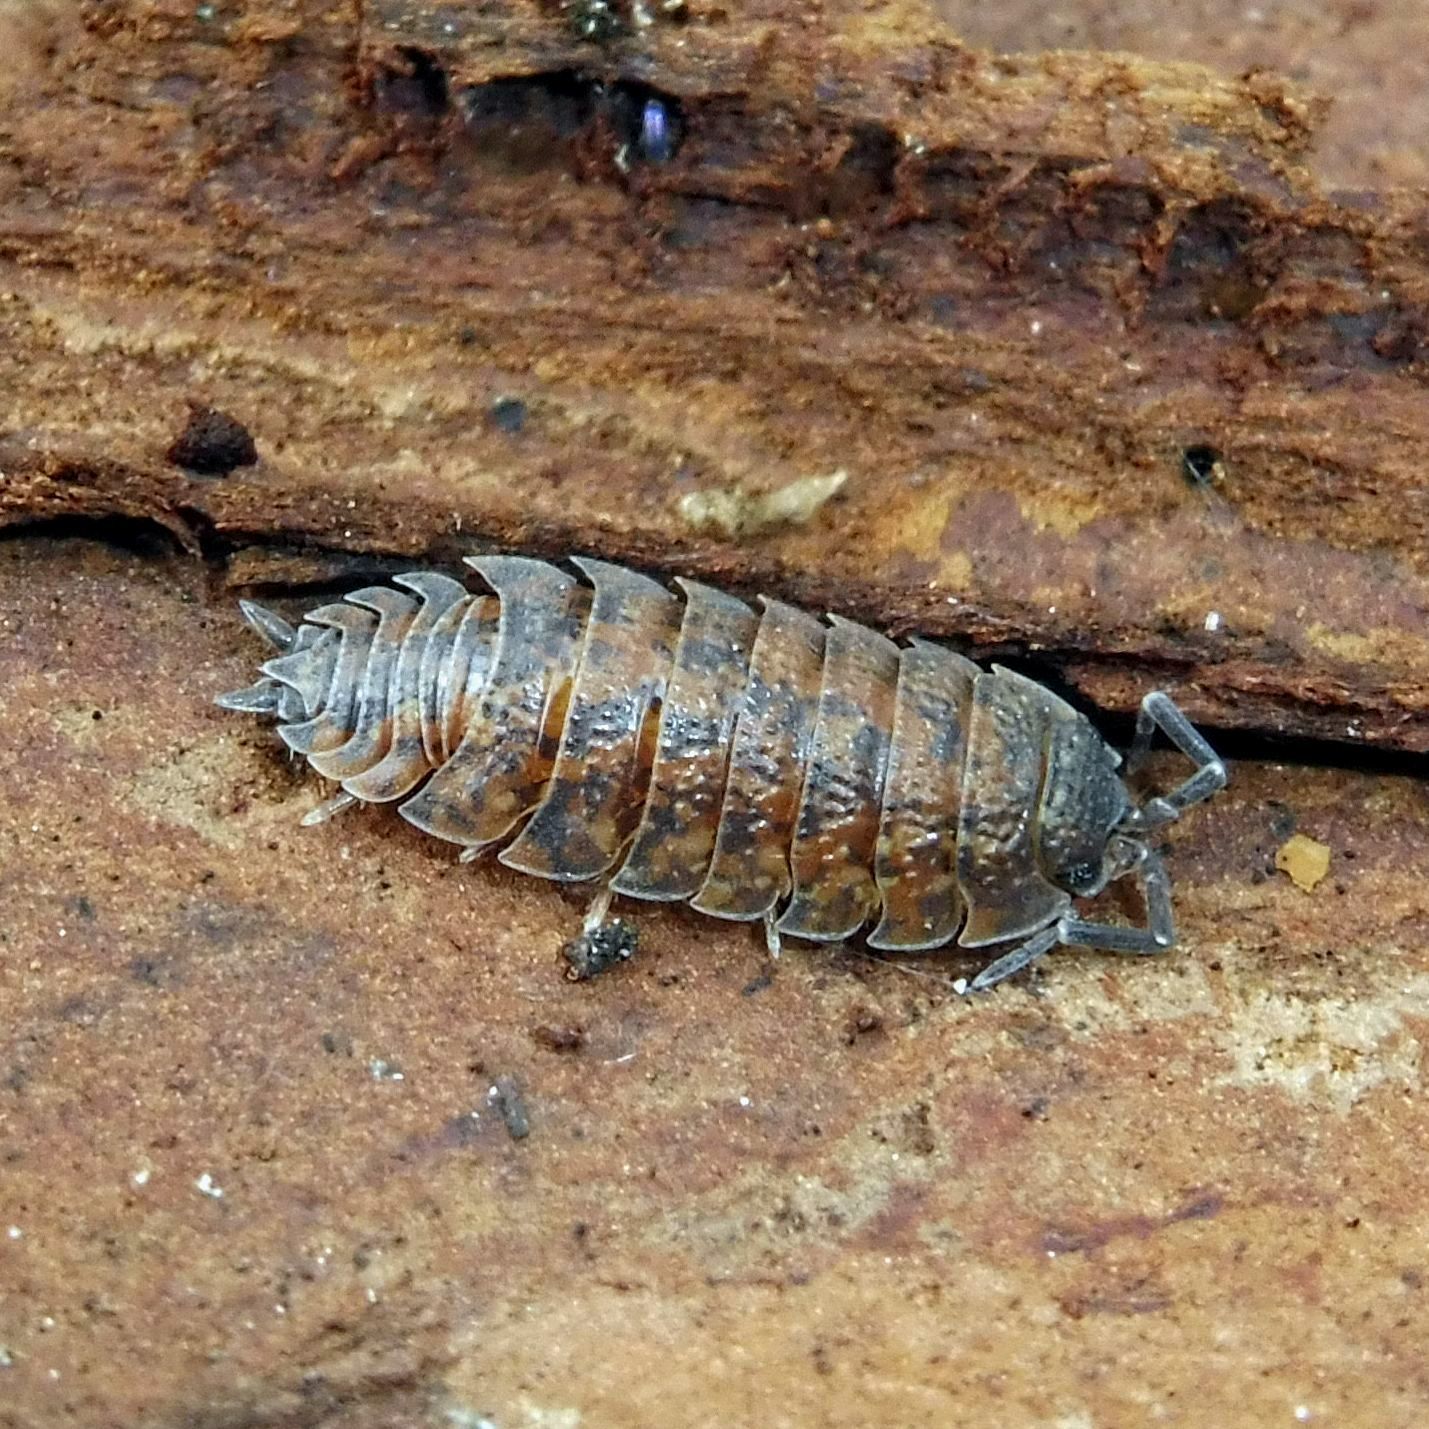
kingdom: Animalia
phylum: Arthropoda
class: Malacostraca
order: Isopoda
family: Porcellionidae
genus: Porcellio
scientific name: Porcellio scaber
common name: Common rough woodlouse
